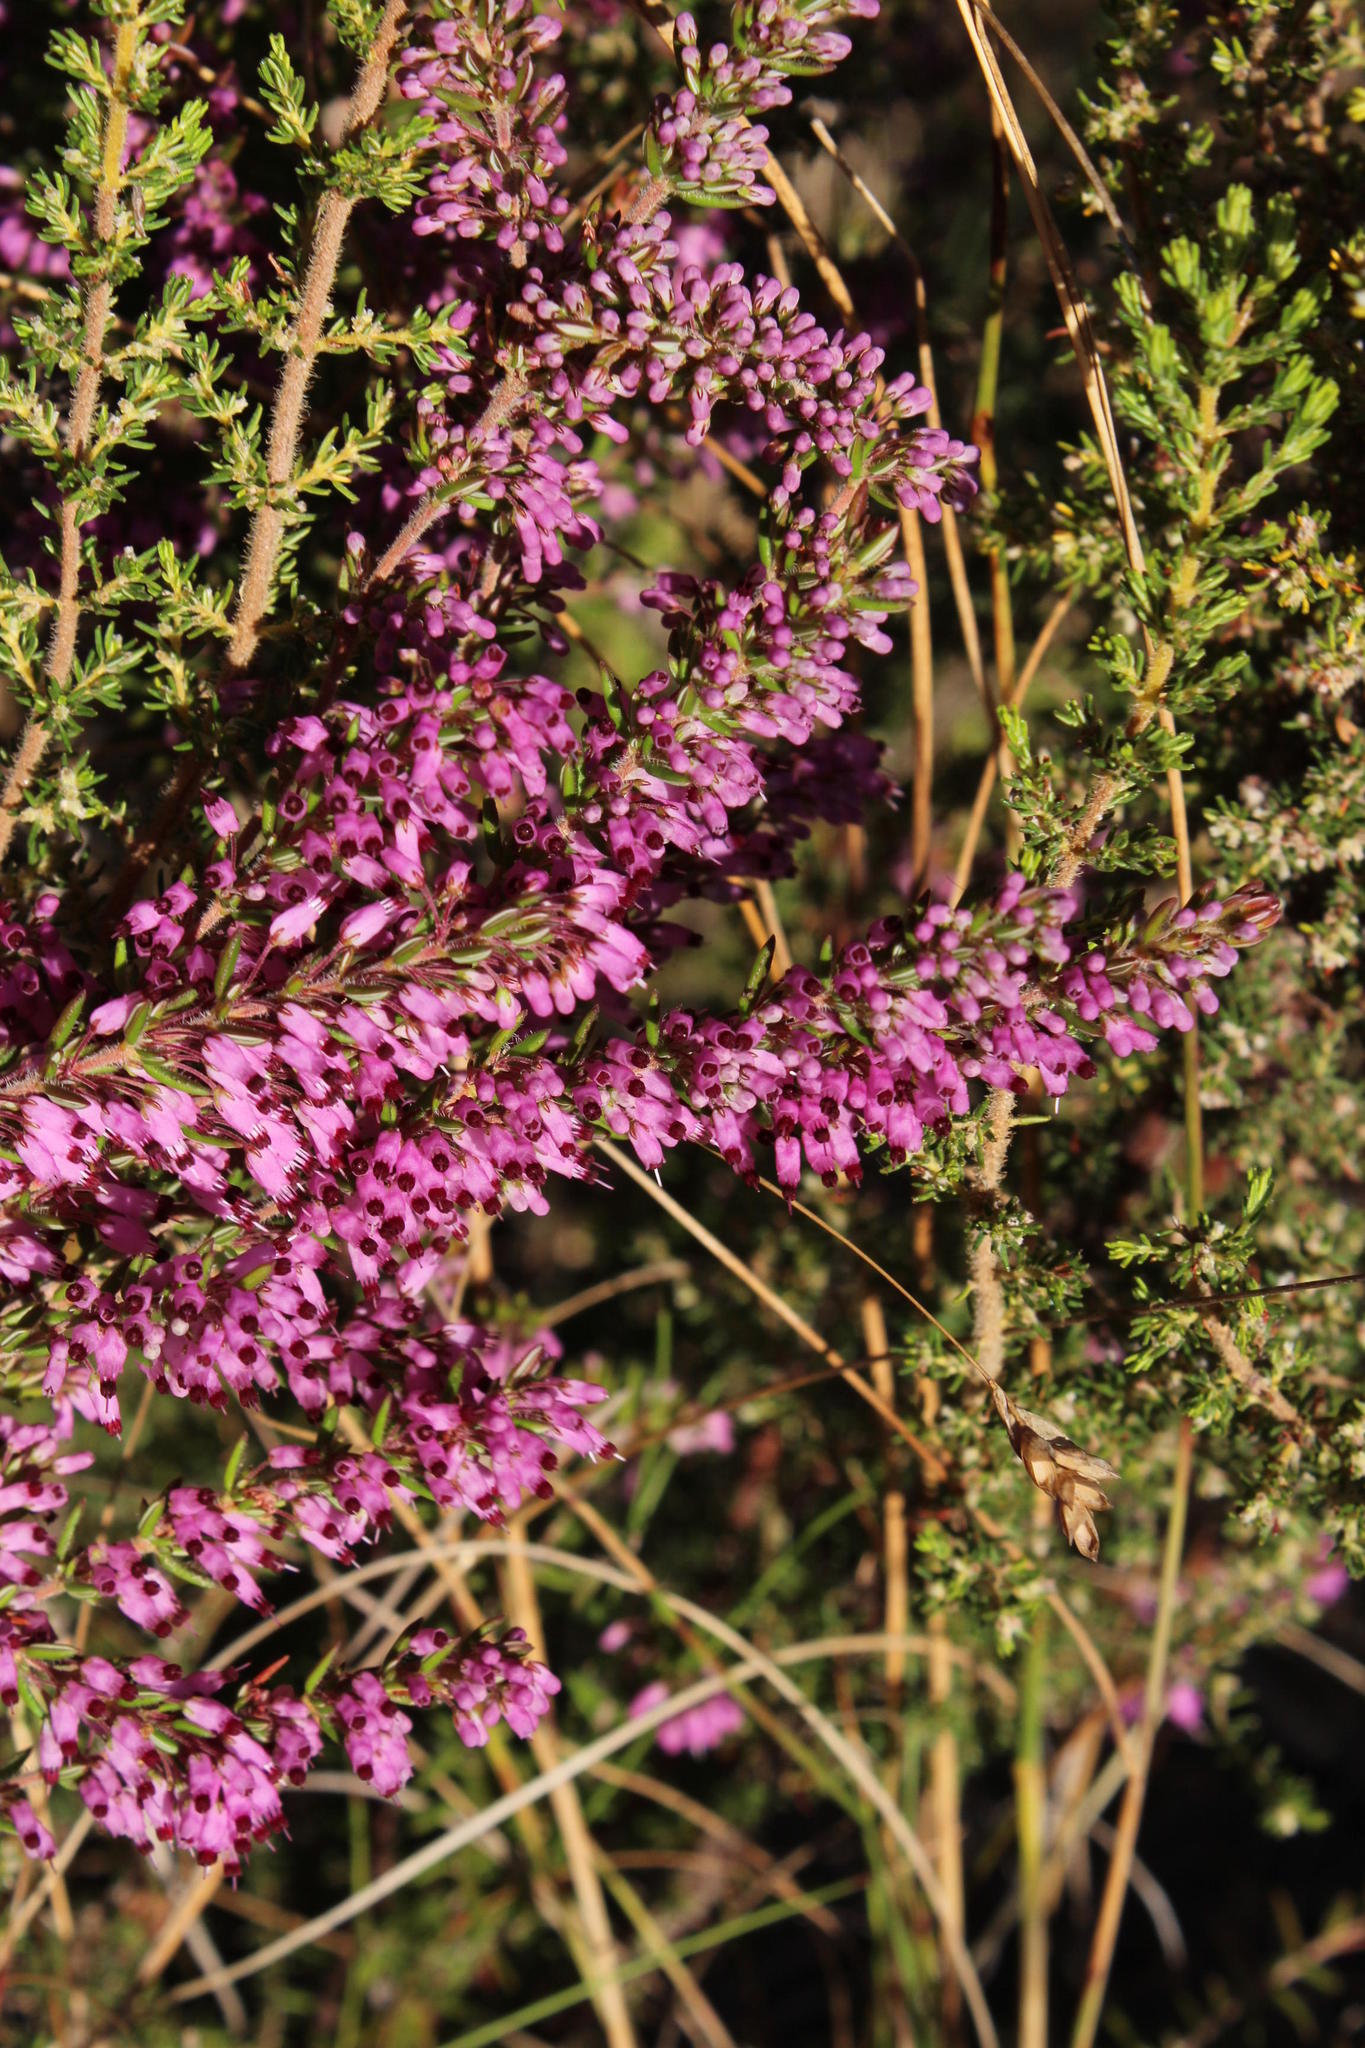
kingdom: Plantae
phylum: Tracheophyta
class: Magnoliopsida
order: Ericales
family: Ericaceae
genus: Erica
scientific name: Erica nudiflora
